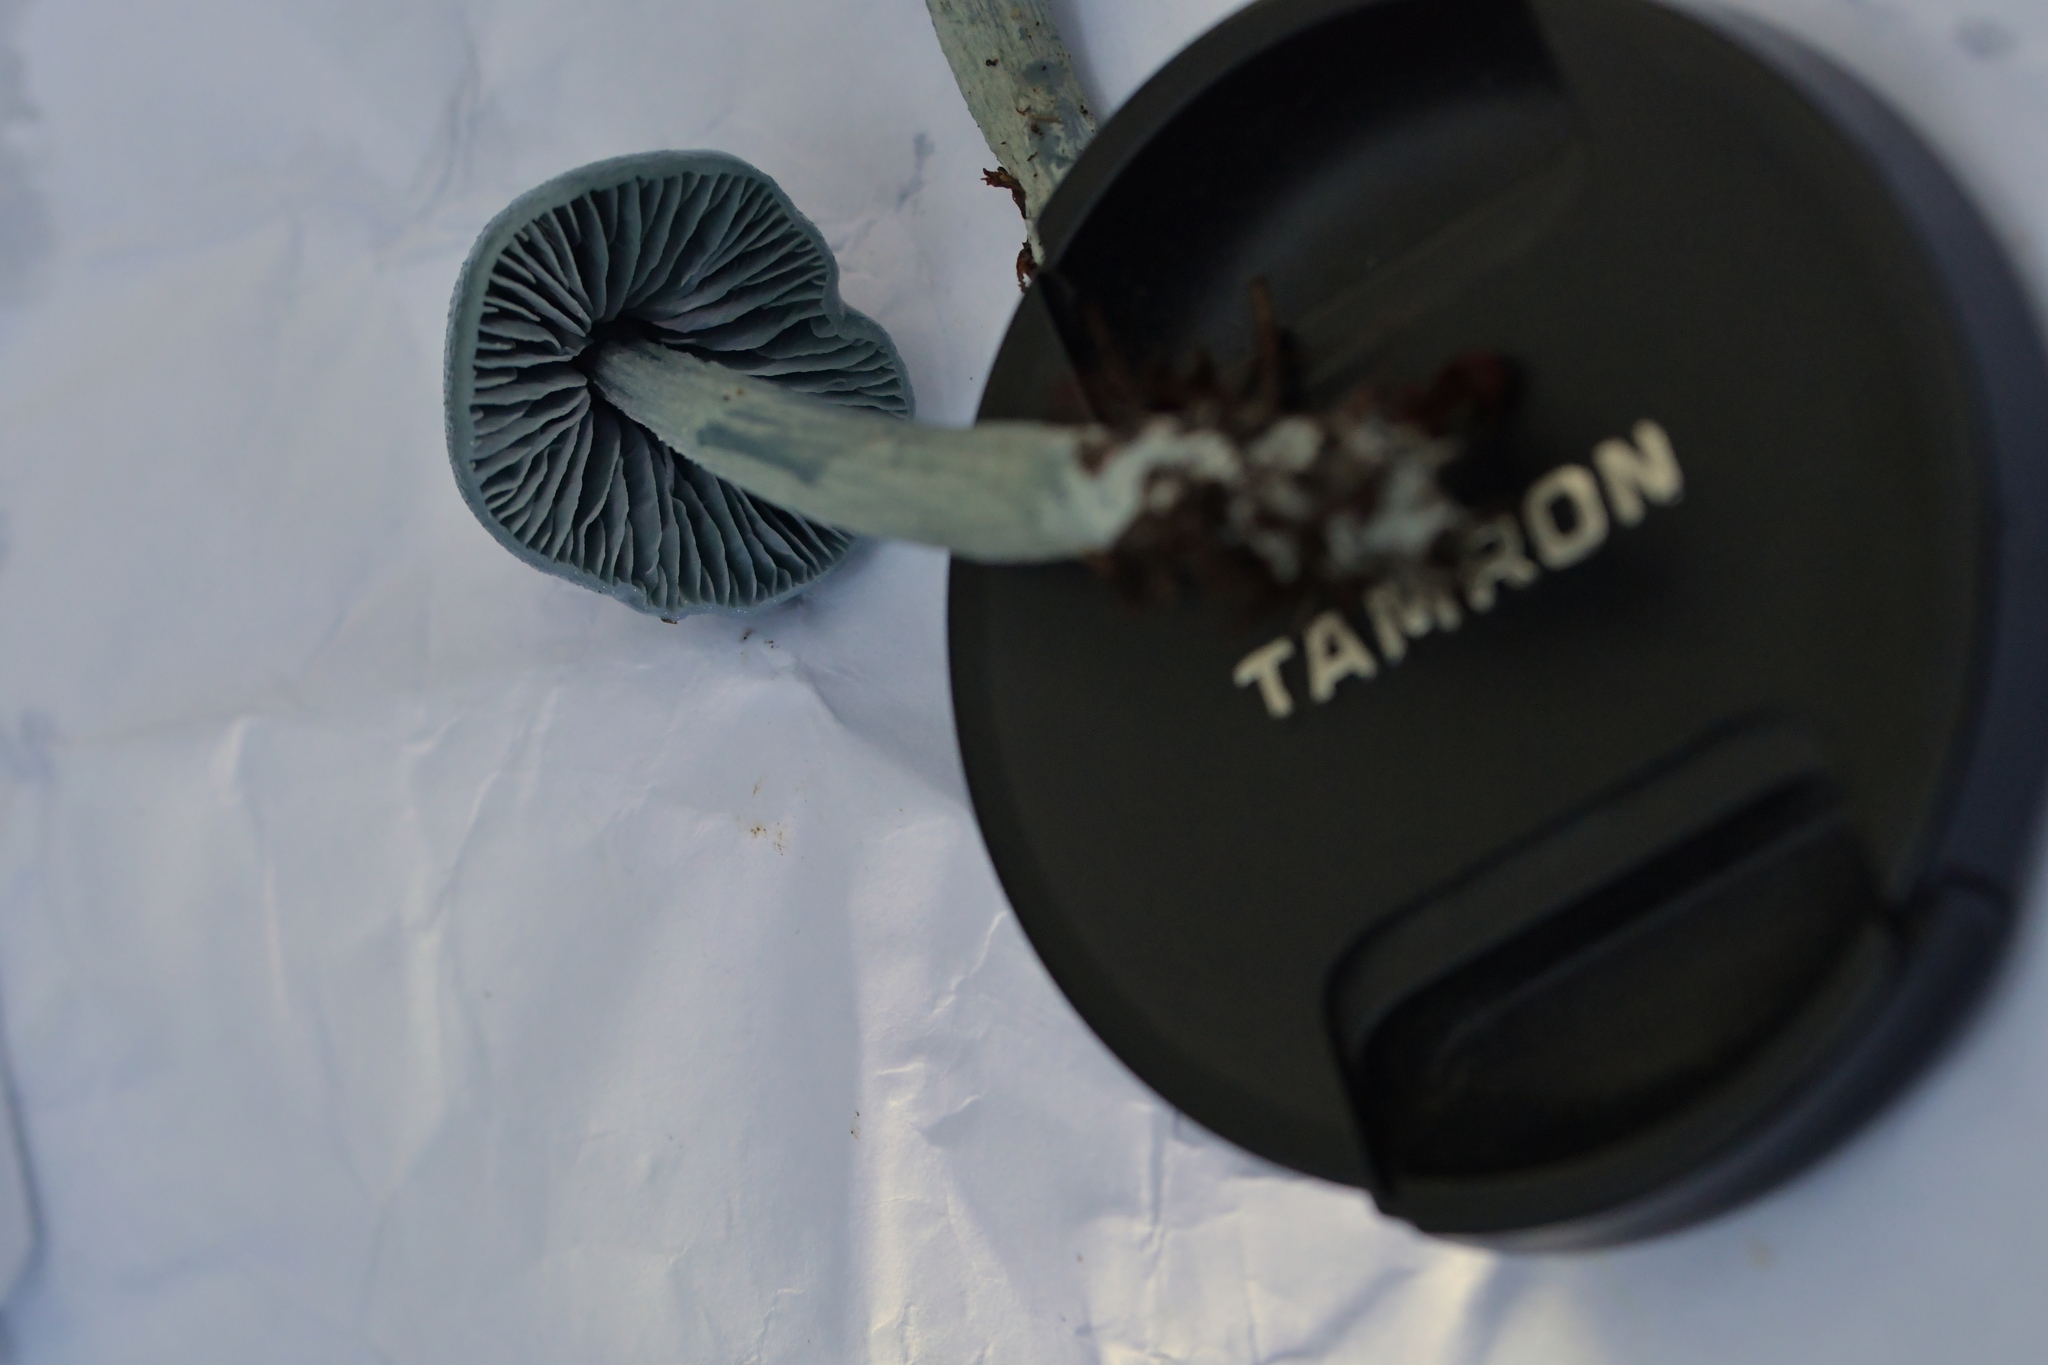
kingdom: Fungi
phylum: Basidiomycota
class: Agaricomycetes
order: Agaricales
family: Entolomataceae
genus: Entoloma
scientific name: Entoloma hochstetteri
